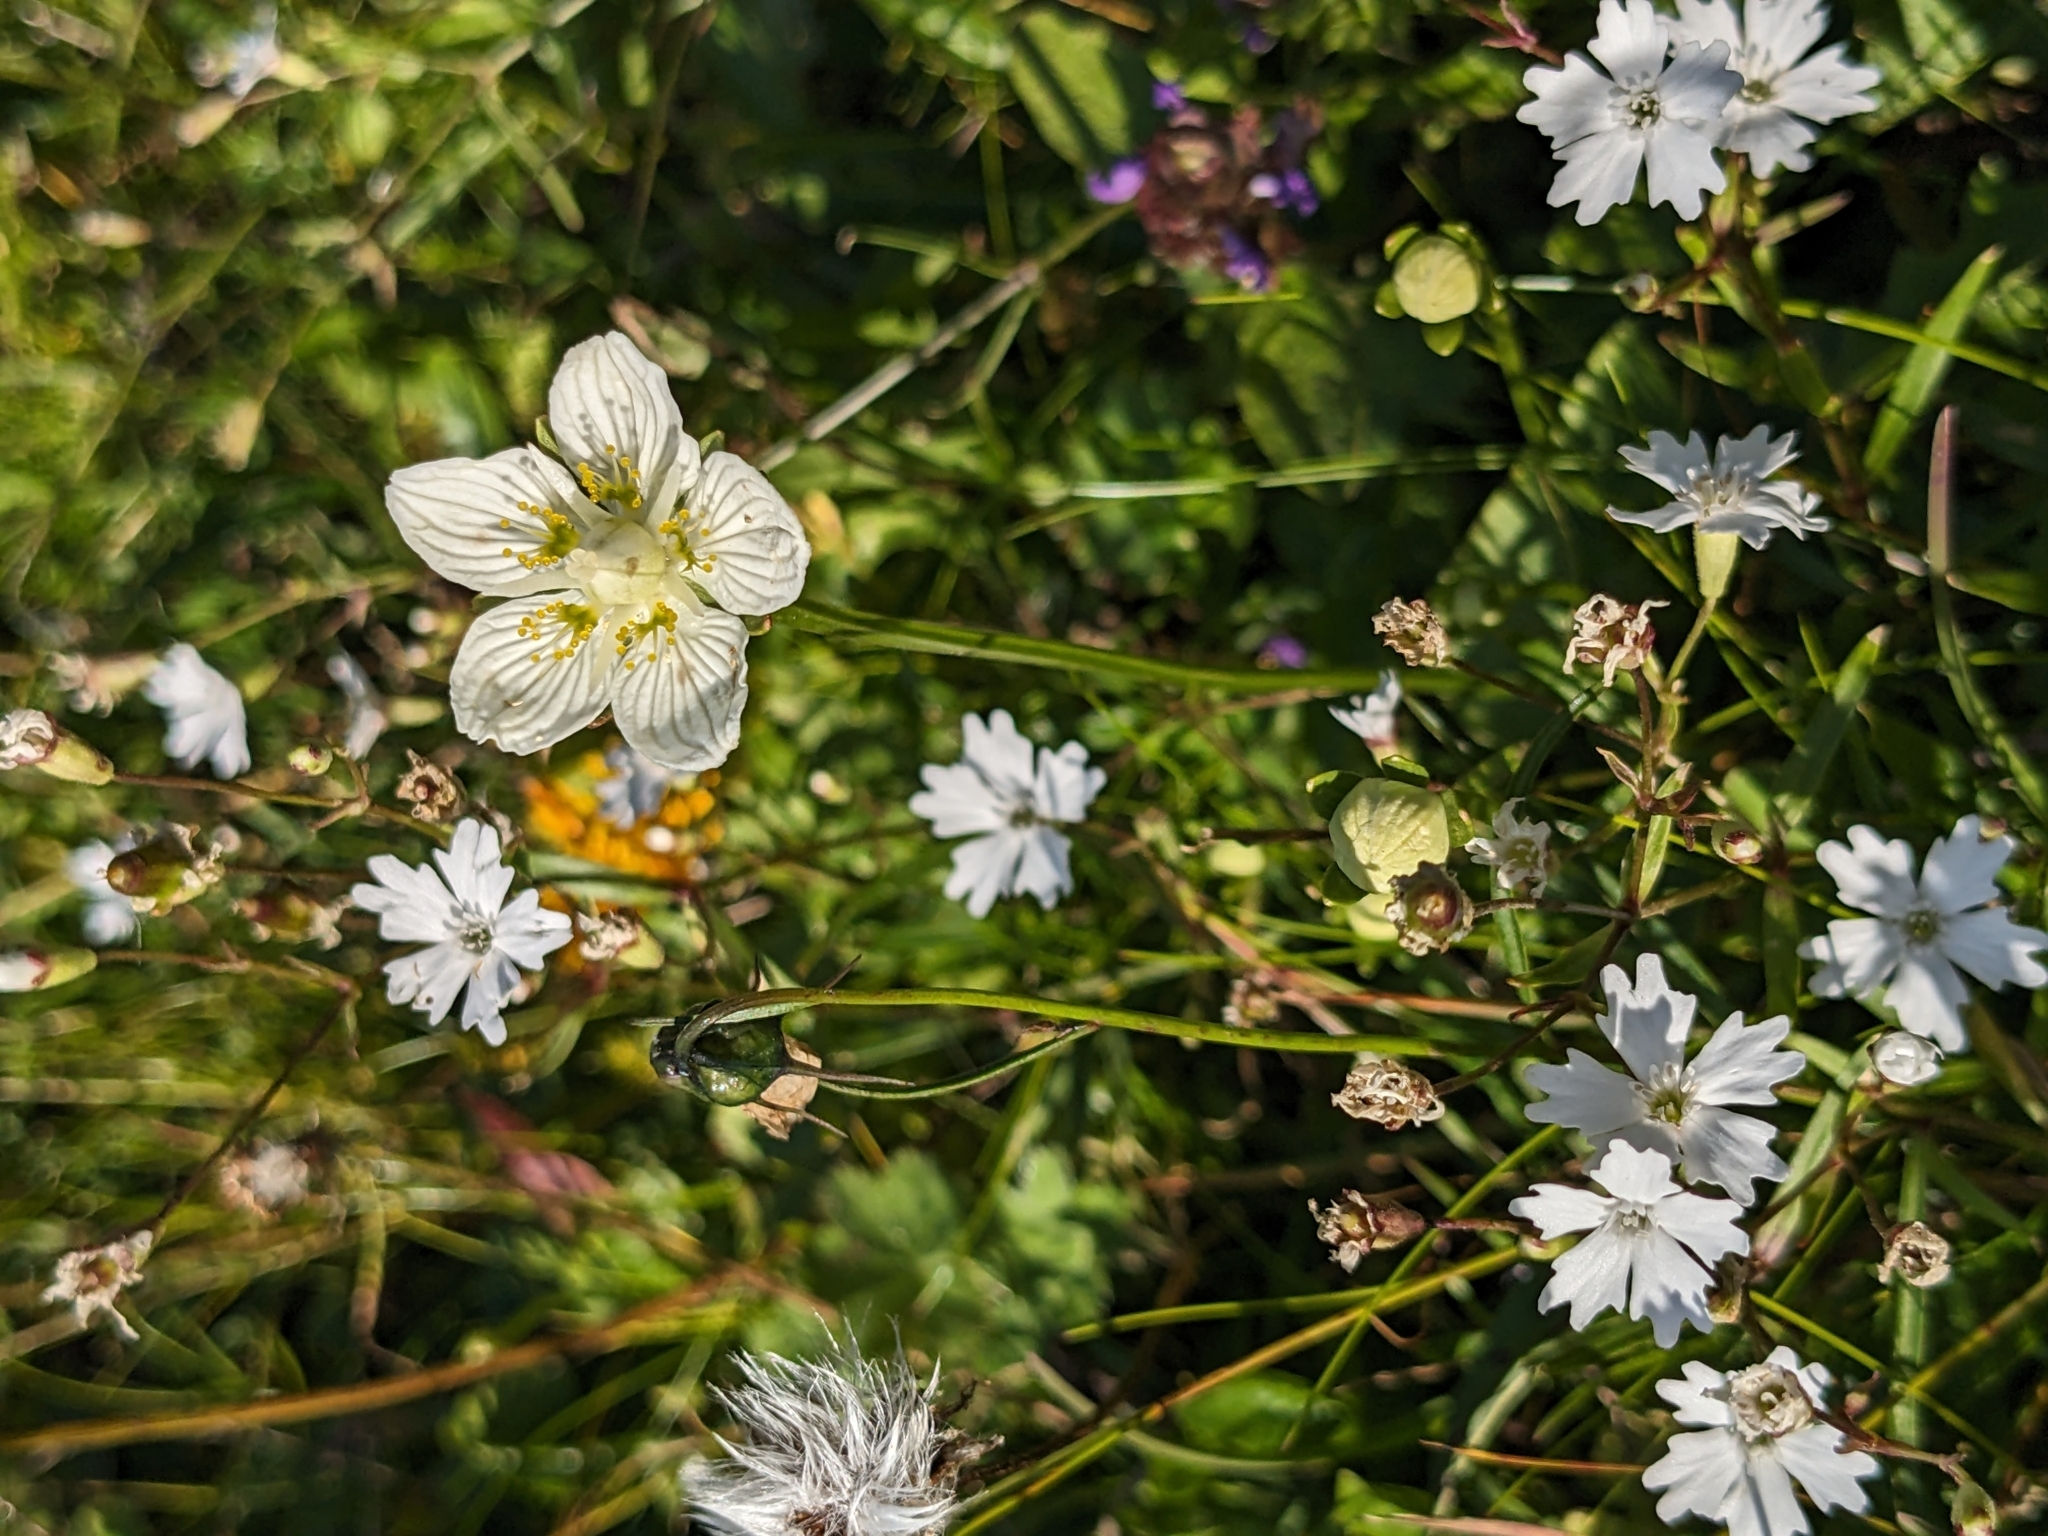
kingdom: Plantae
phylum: Tracheophyta
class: Magnoliopsida
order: Celastrales
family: Parnassiaceae
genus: Parnassia
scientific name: Parnassia palustris
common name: Grass-of-parnassus
